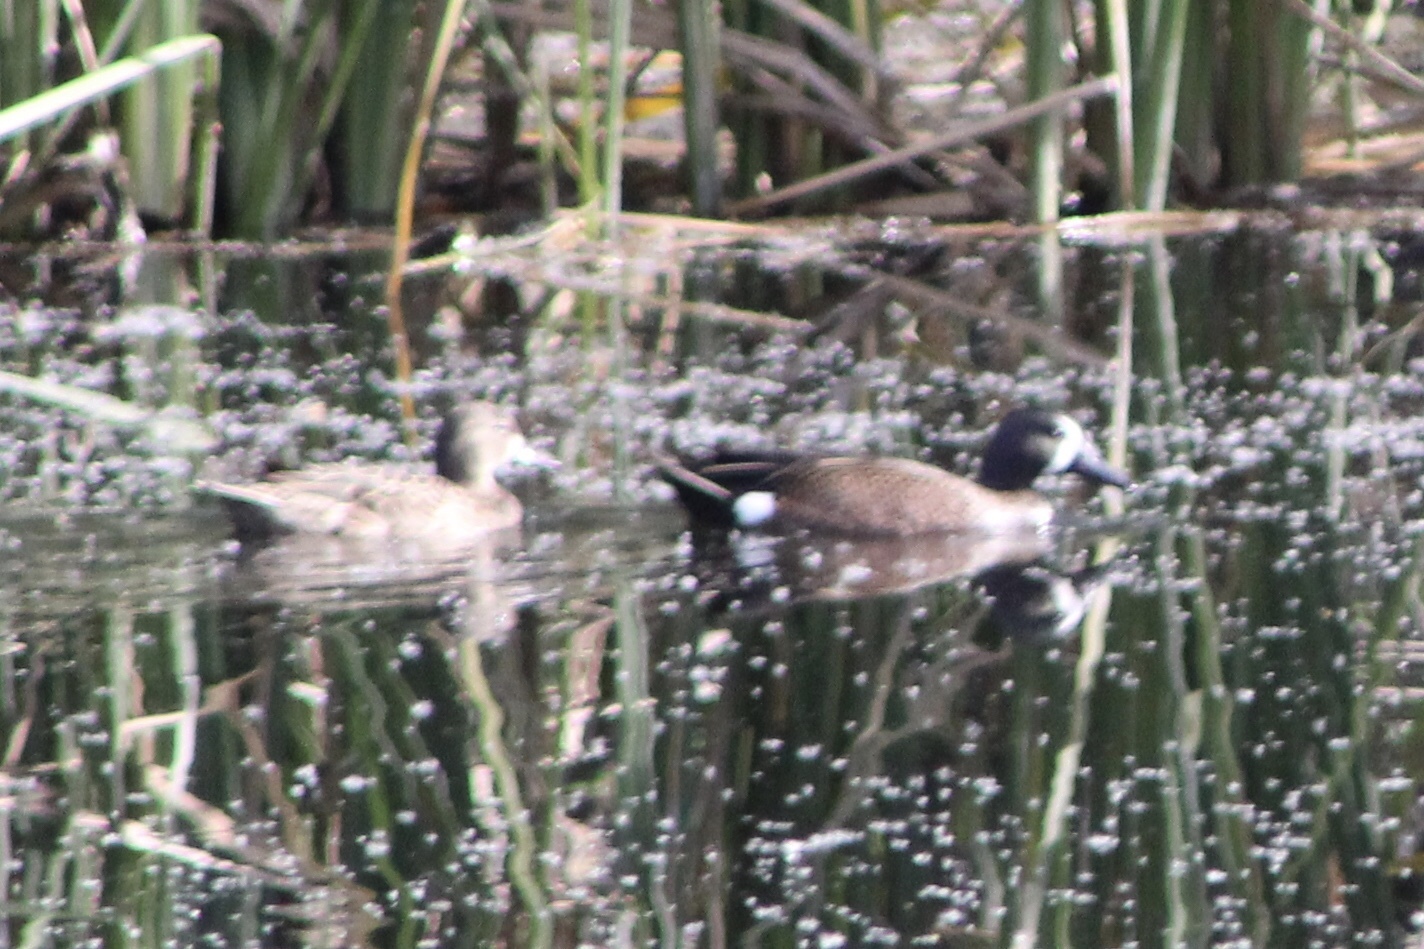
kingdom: Animalia
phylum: Chordata
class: Aves
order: Anseriformes
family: Anatidae
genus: Spatula
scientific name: Spatula discors
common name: Blue-winged teal
